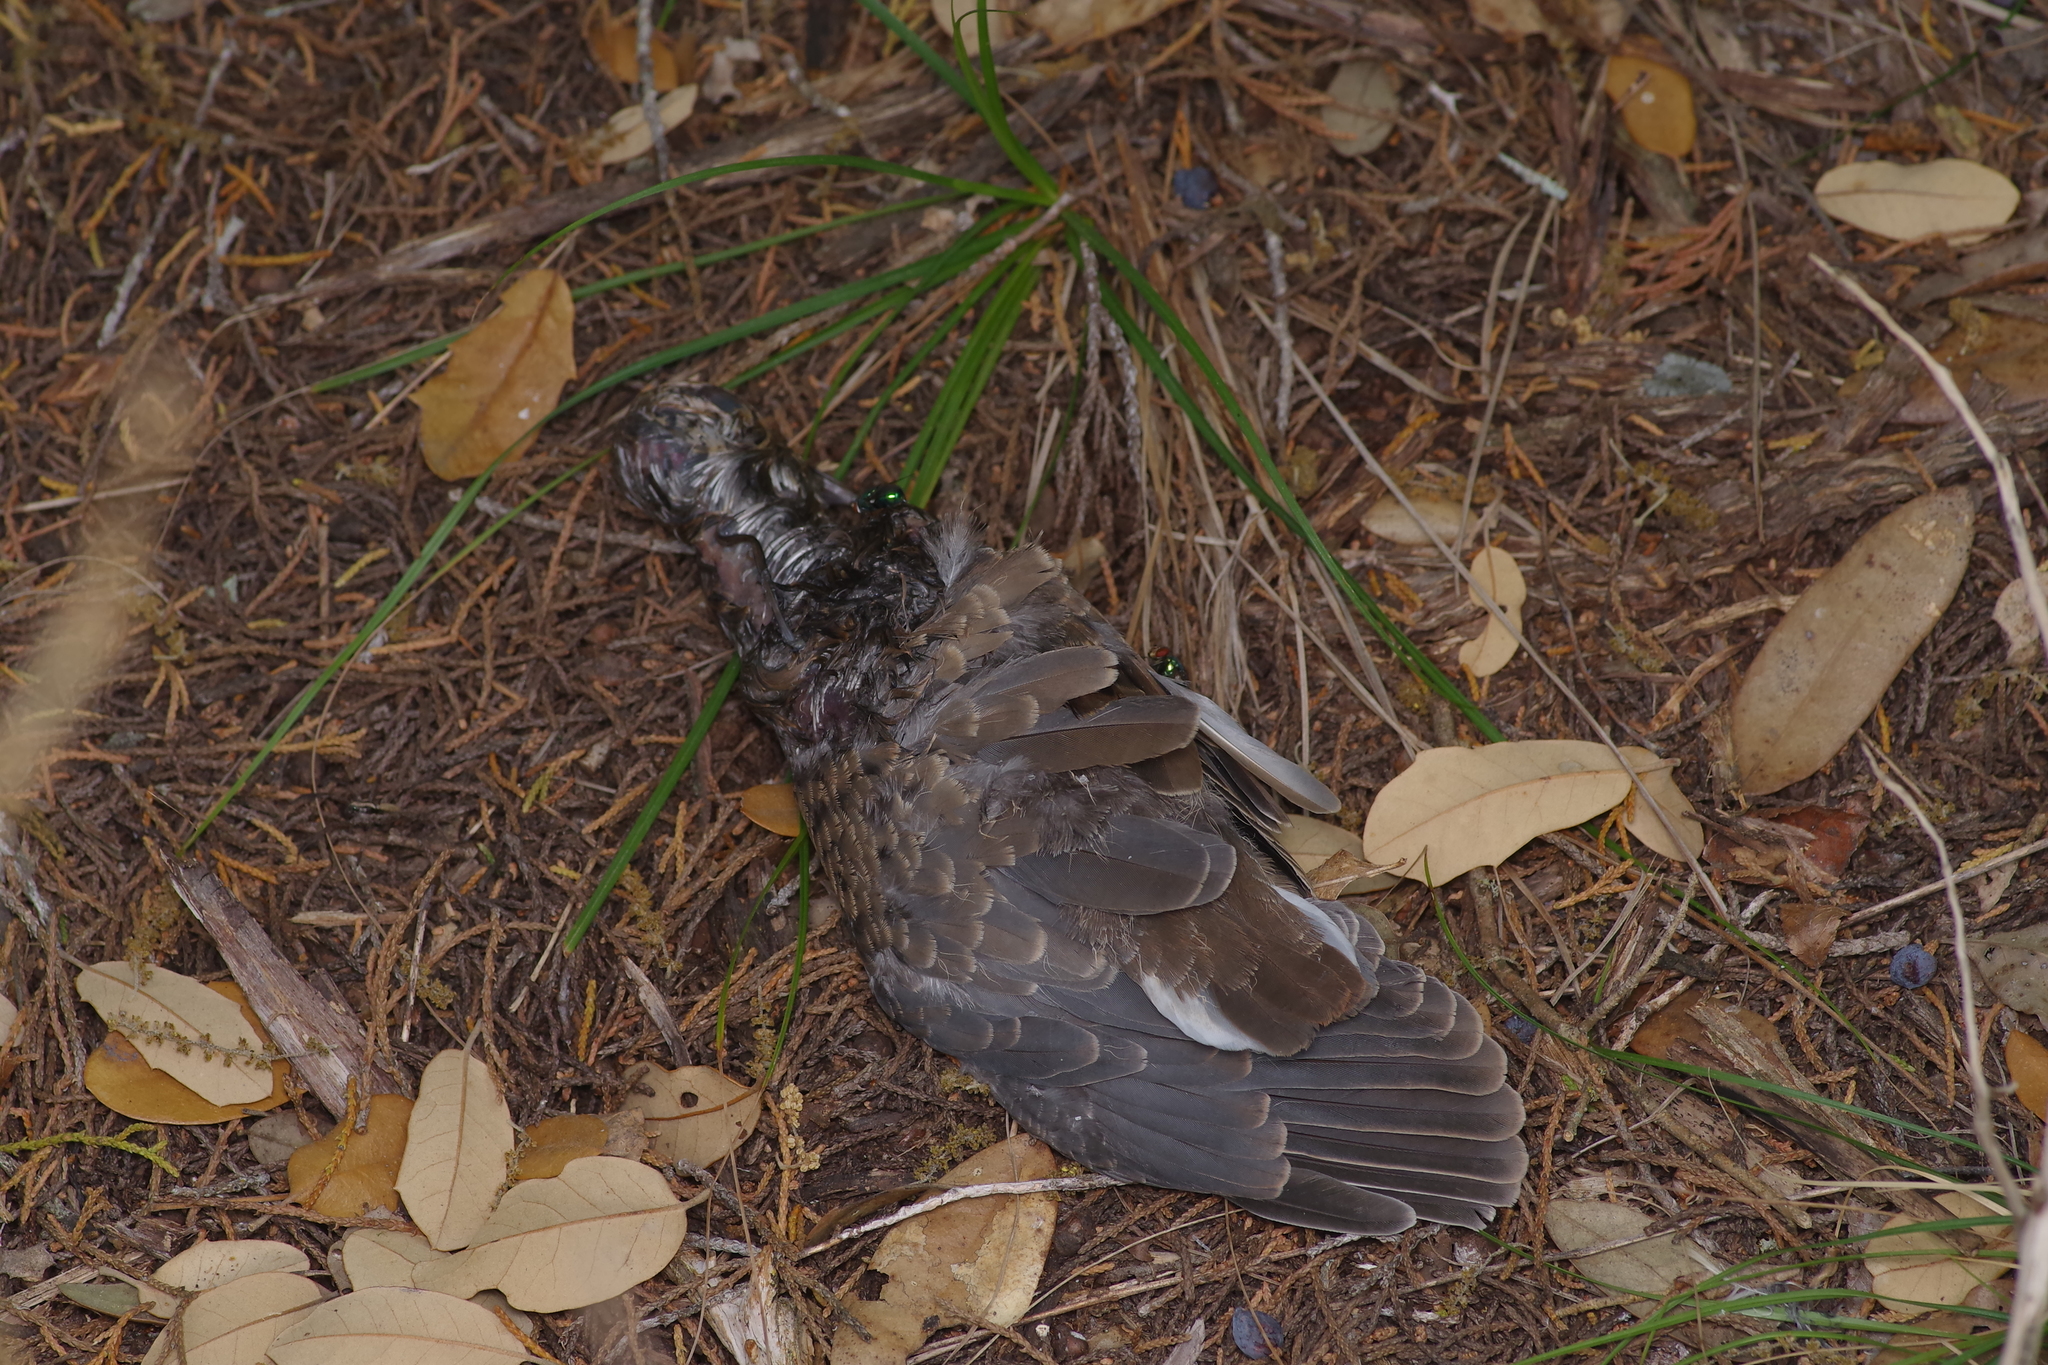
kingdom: Animalia
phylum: Chordata
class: Aves
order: Columbiformes
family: Columbidae
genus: Zenaida
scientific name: Zenaida asiatica
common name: White-winged dove
